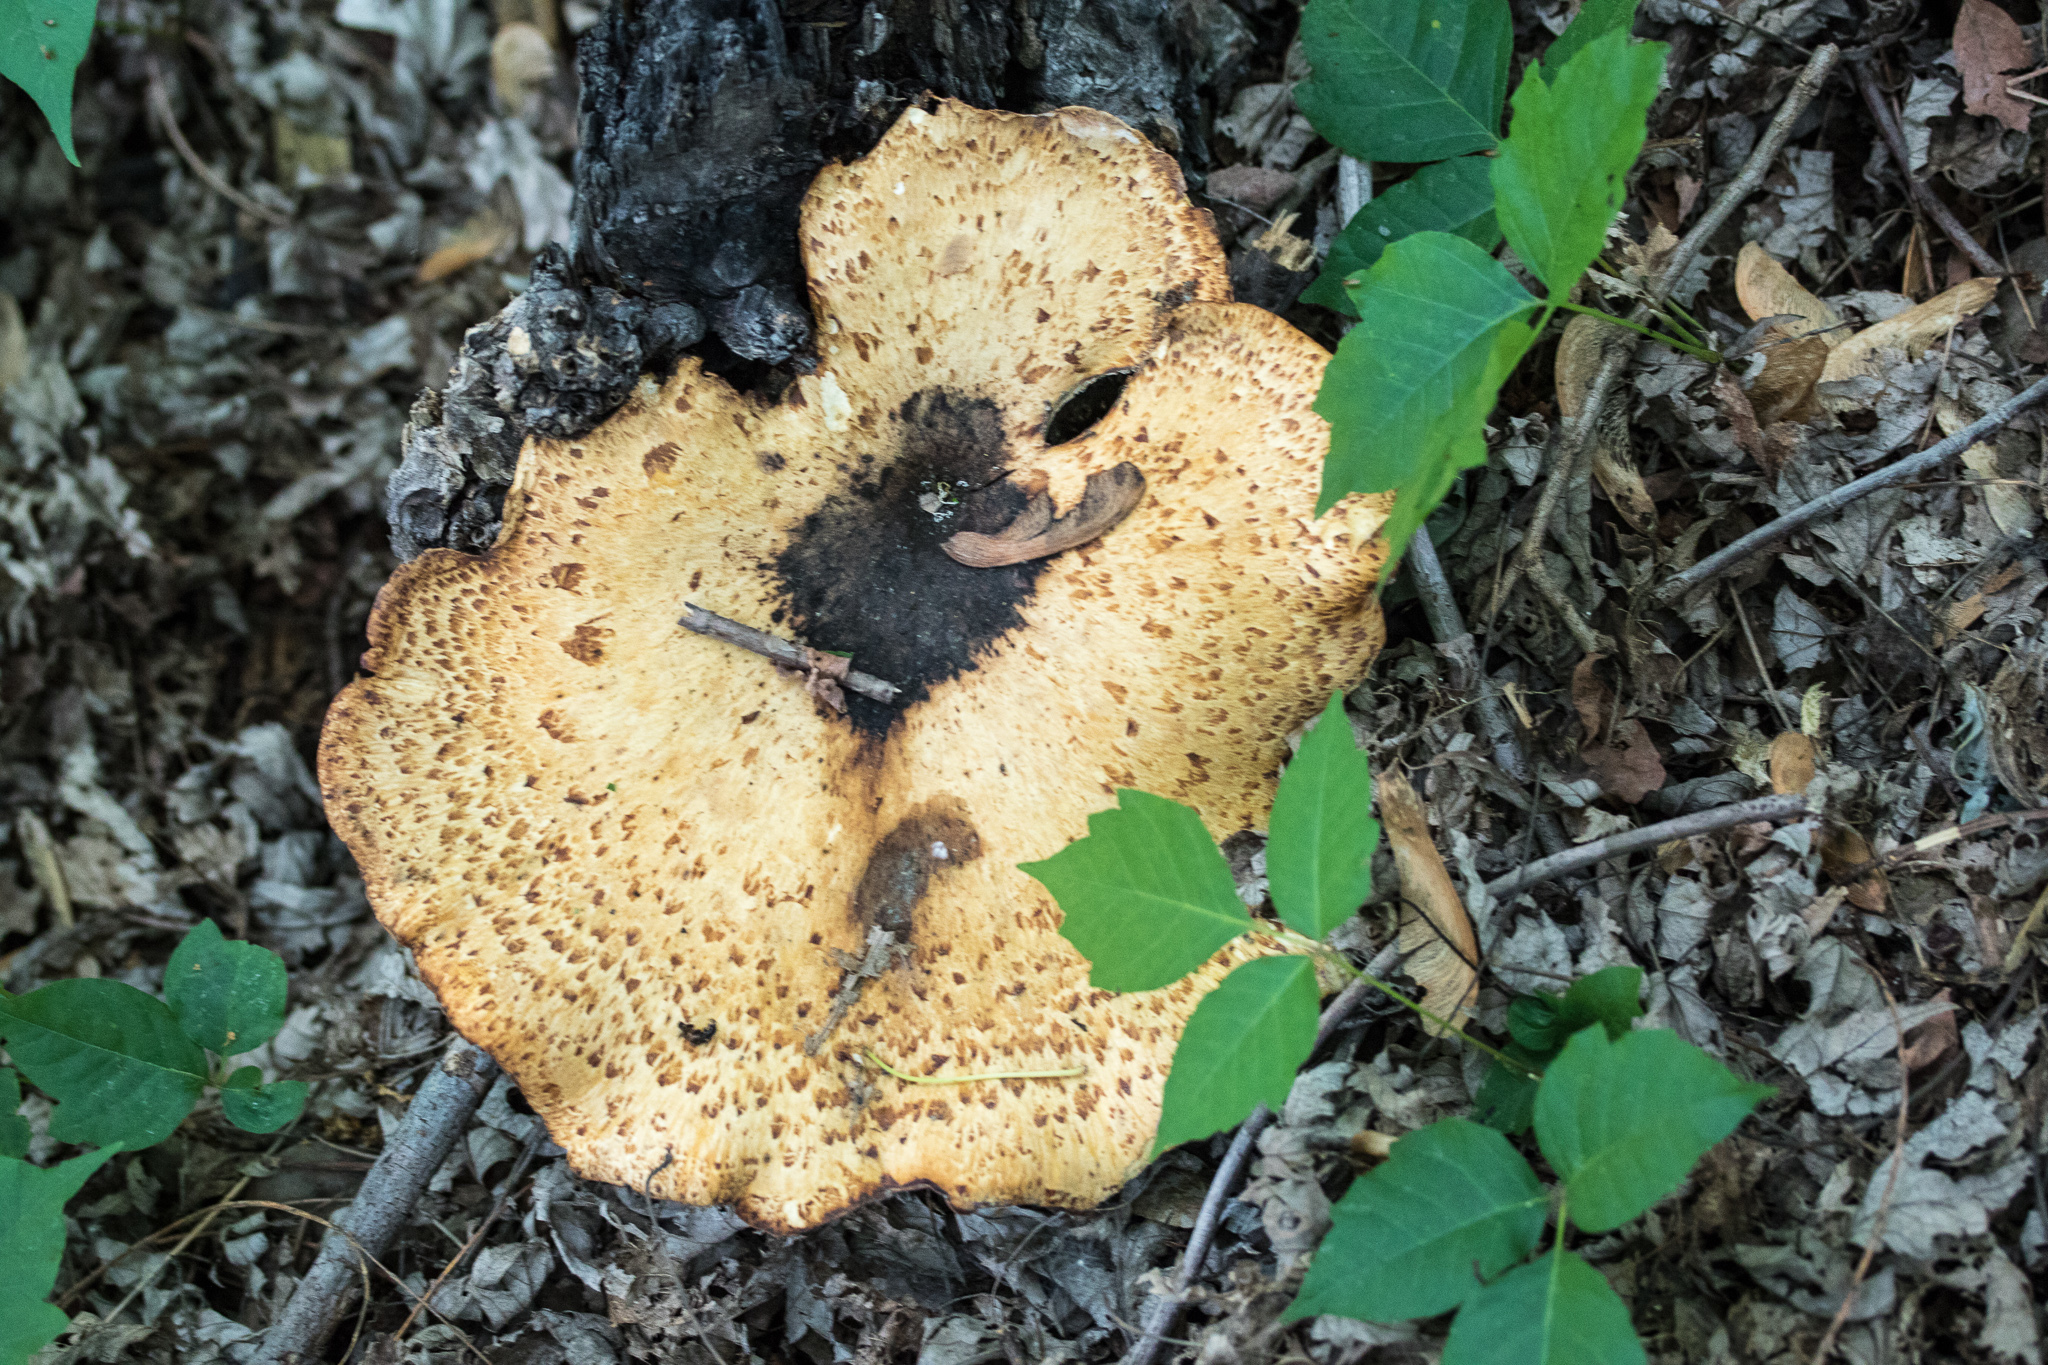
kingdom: Fungi
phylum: Basidiomycota
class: Agaricomycetes
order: Polyporales
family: Polyporaceae
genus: Cerioporus
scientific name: Cerioporus squamosus
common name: Dryad's saddle
